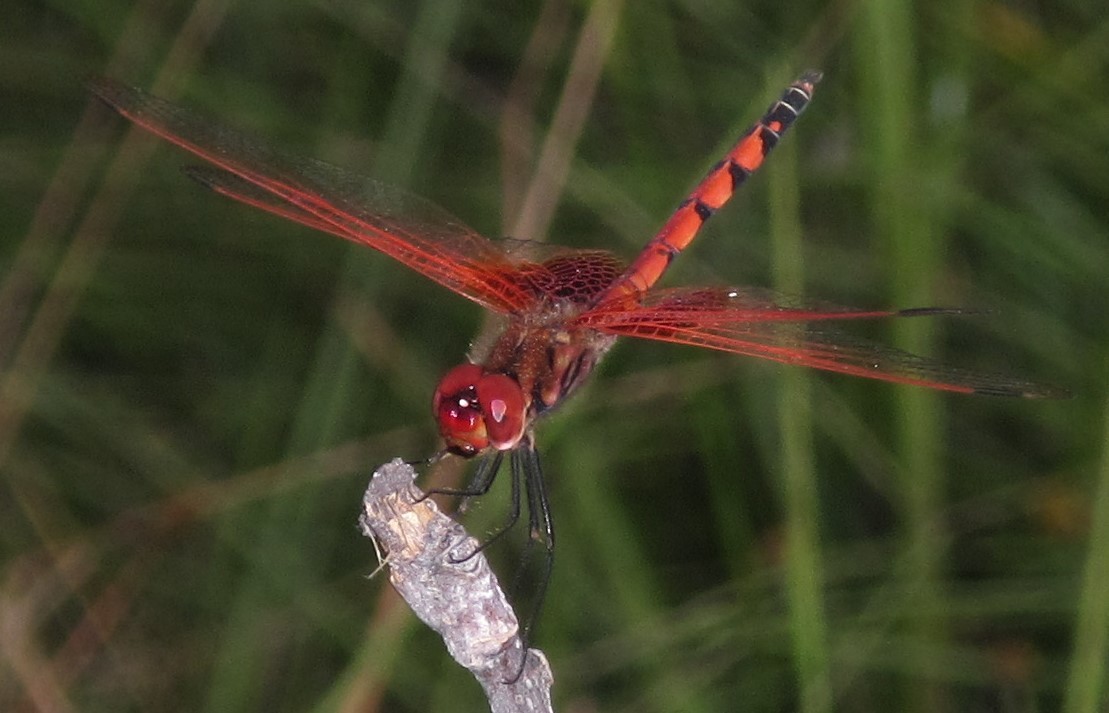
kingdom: Animalia
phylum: Arthropoda
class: Insecta
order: Odonata
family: Libellulidae
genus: Trithemis
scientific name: Trithemis monardi
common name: Monard's dropwing
